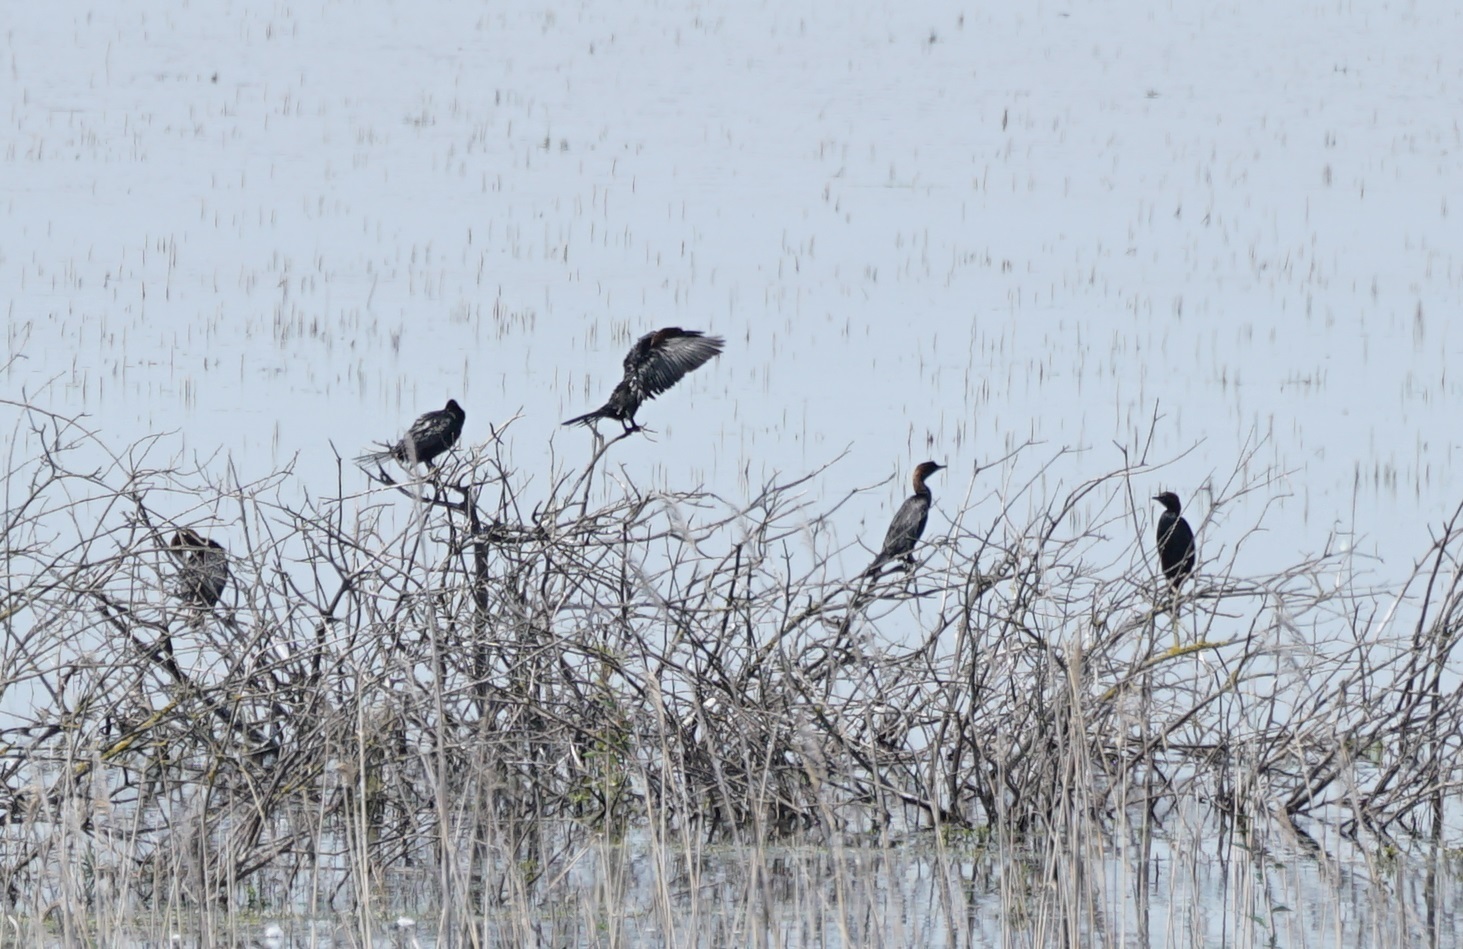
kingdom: Animalia
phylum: Chordata
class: Aves
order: Suliformes
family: Phalacrocoracidae
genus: Microcarbo
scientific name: Microcarbo pygmaeus
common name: Pygmy cormorant
